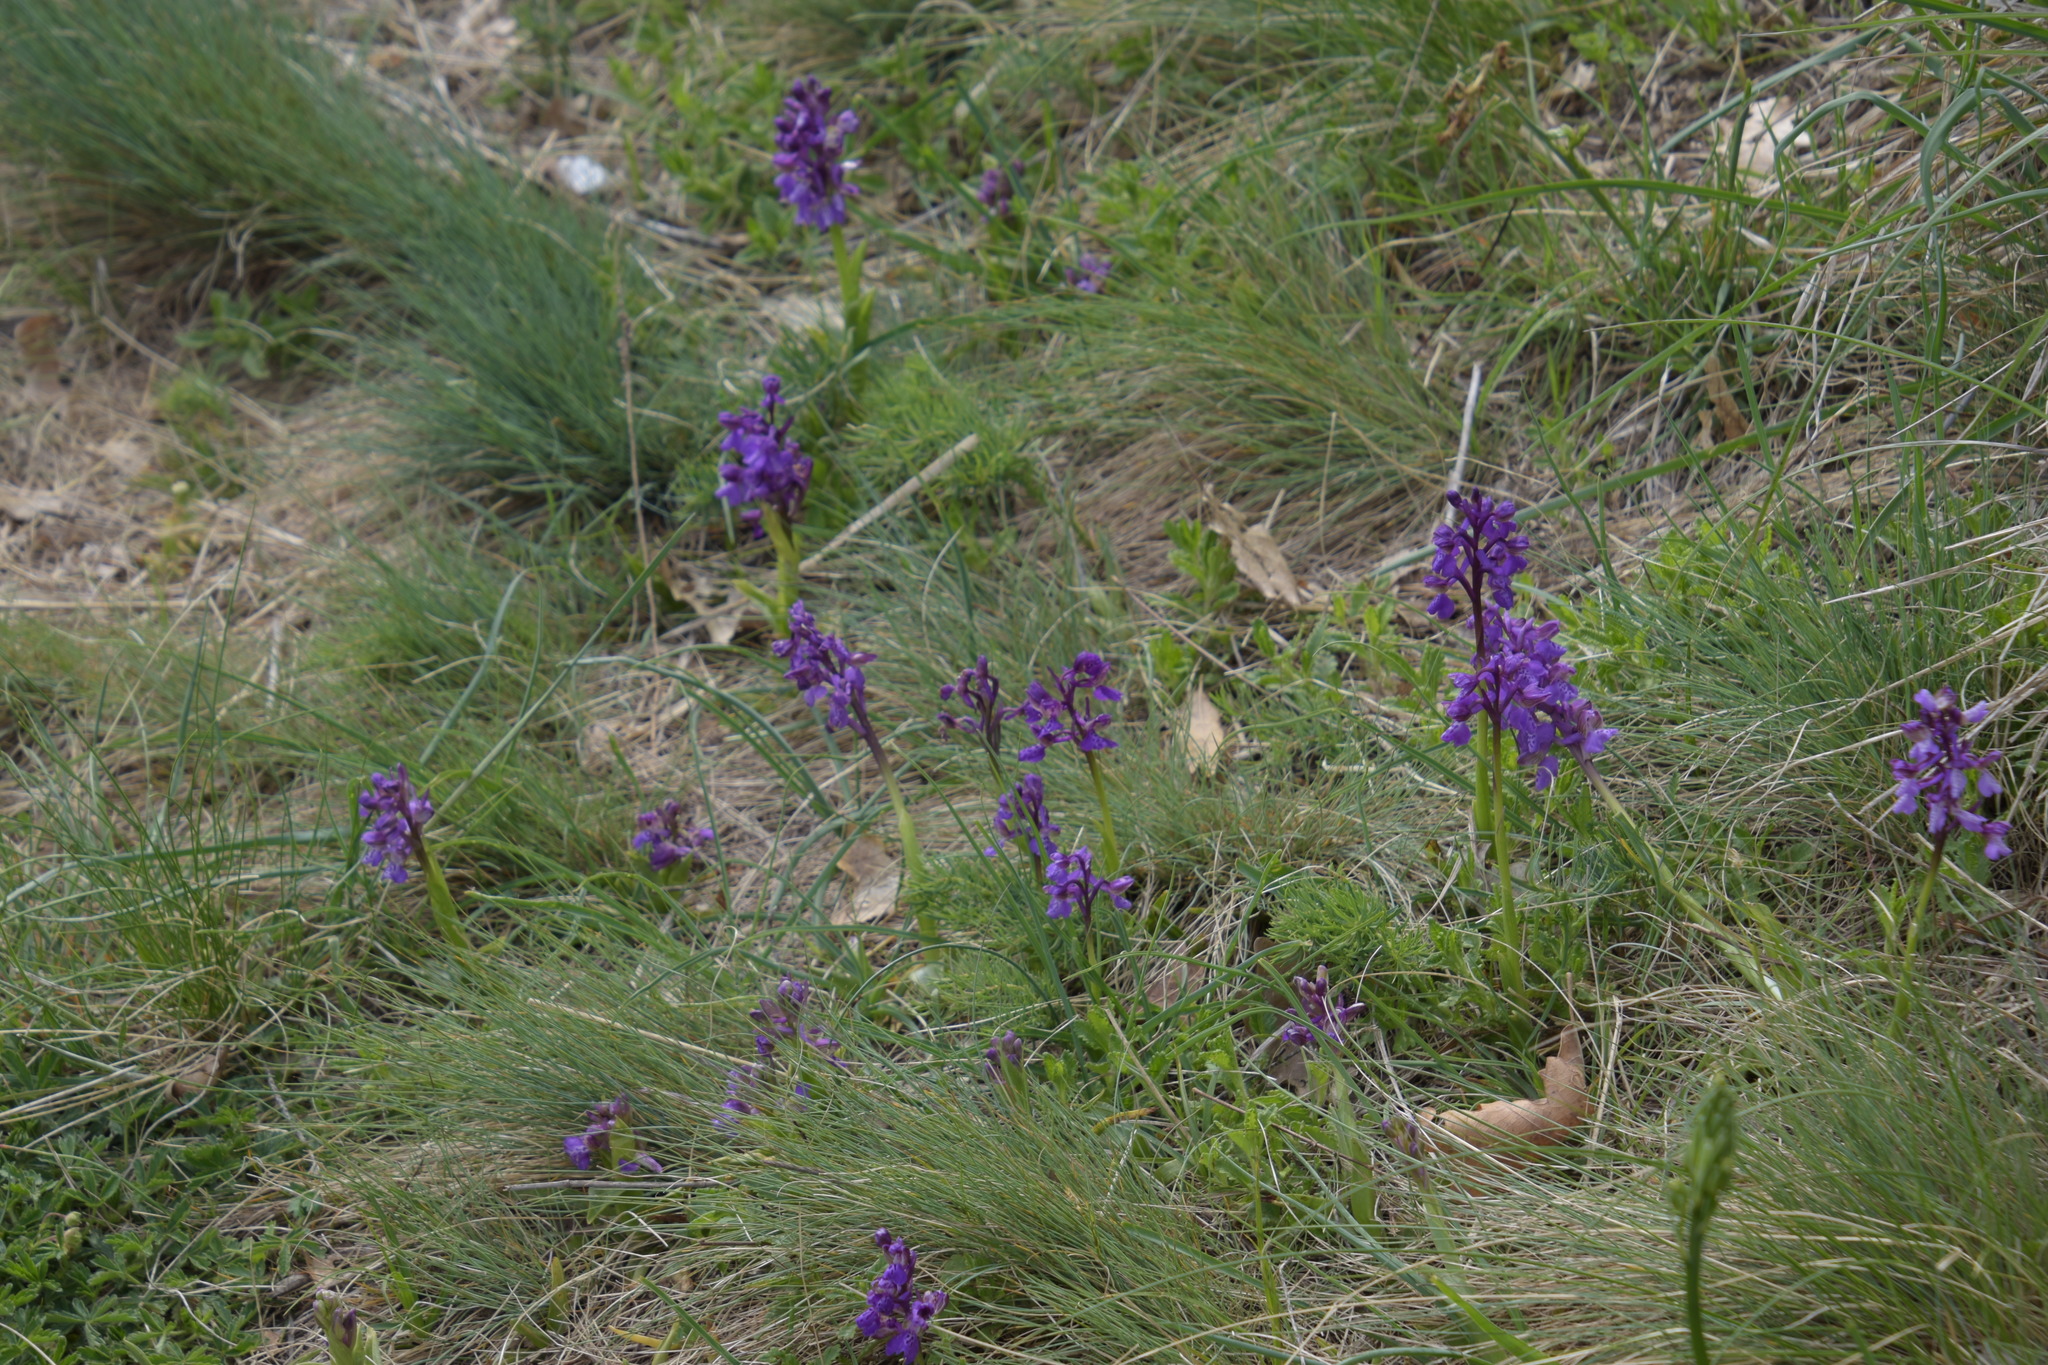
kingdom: Plantae
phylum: Tracheophyta
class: Liliopsida
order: Asparagales
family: Orchidaceae
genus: Anacamptis
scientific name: Anacamptis morio
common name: Green-winged orchid
